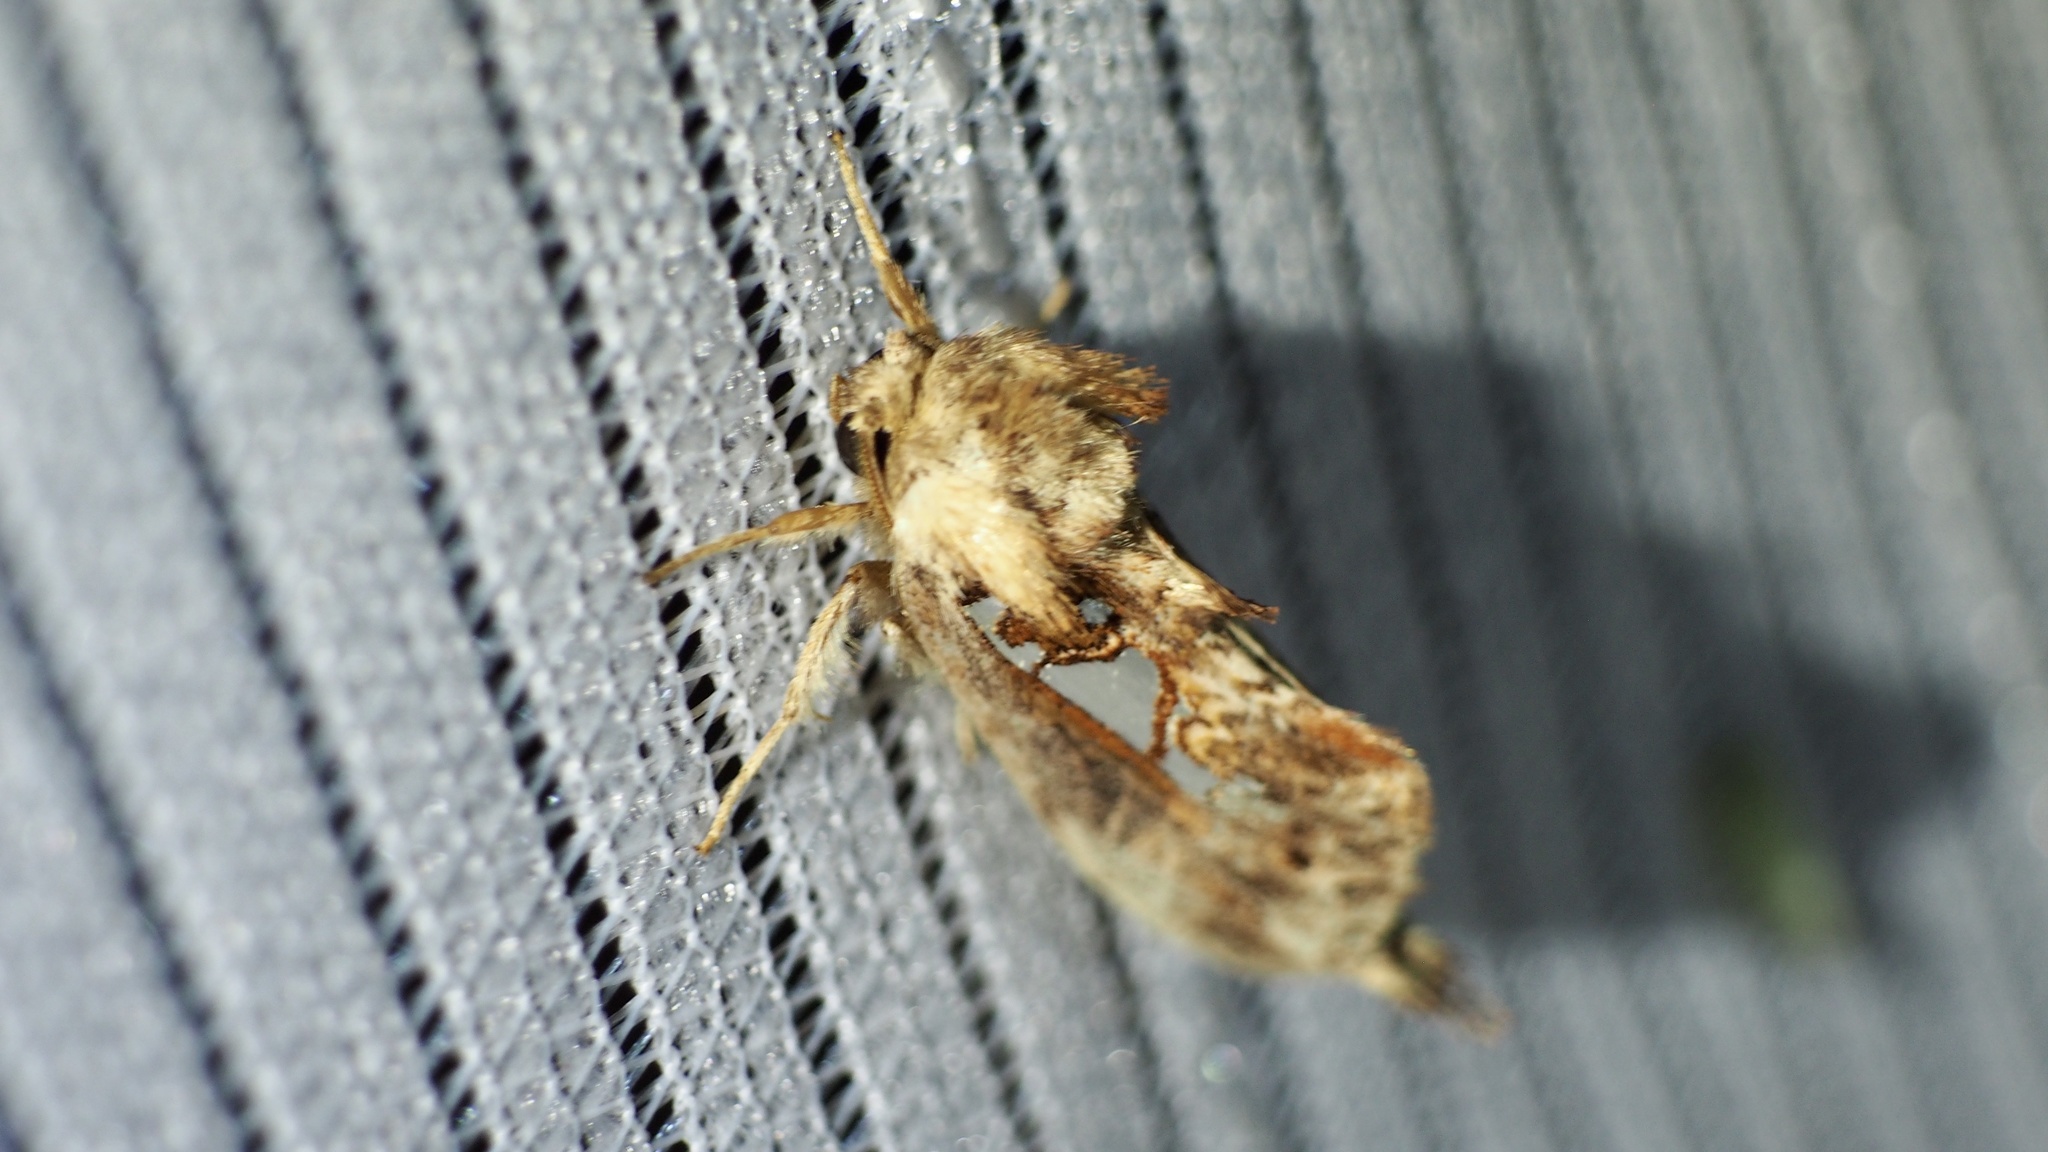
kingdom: Animalia
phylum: Arthropoda
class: Insecta
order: Lepidoptera
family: Notodontidae
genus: Spatalia
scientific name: Spatalia doerriesi
